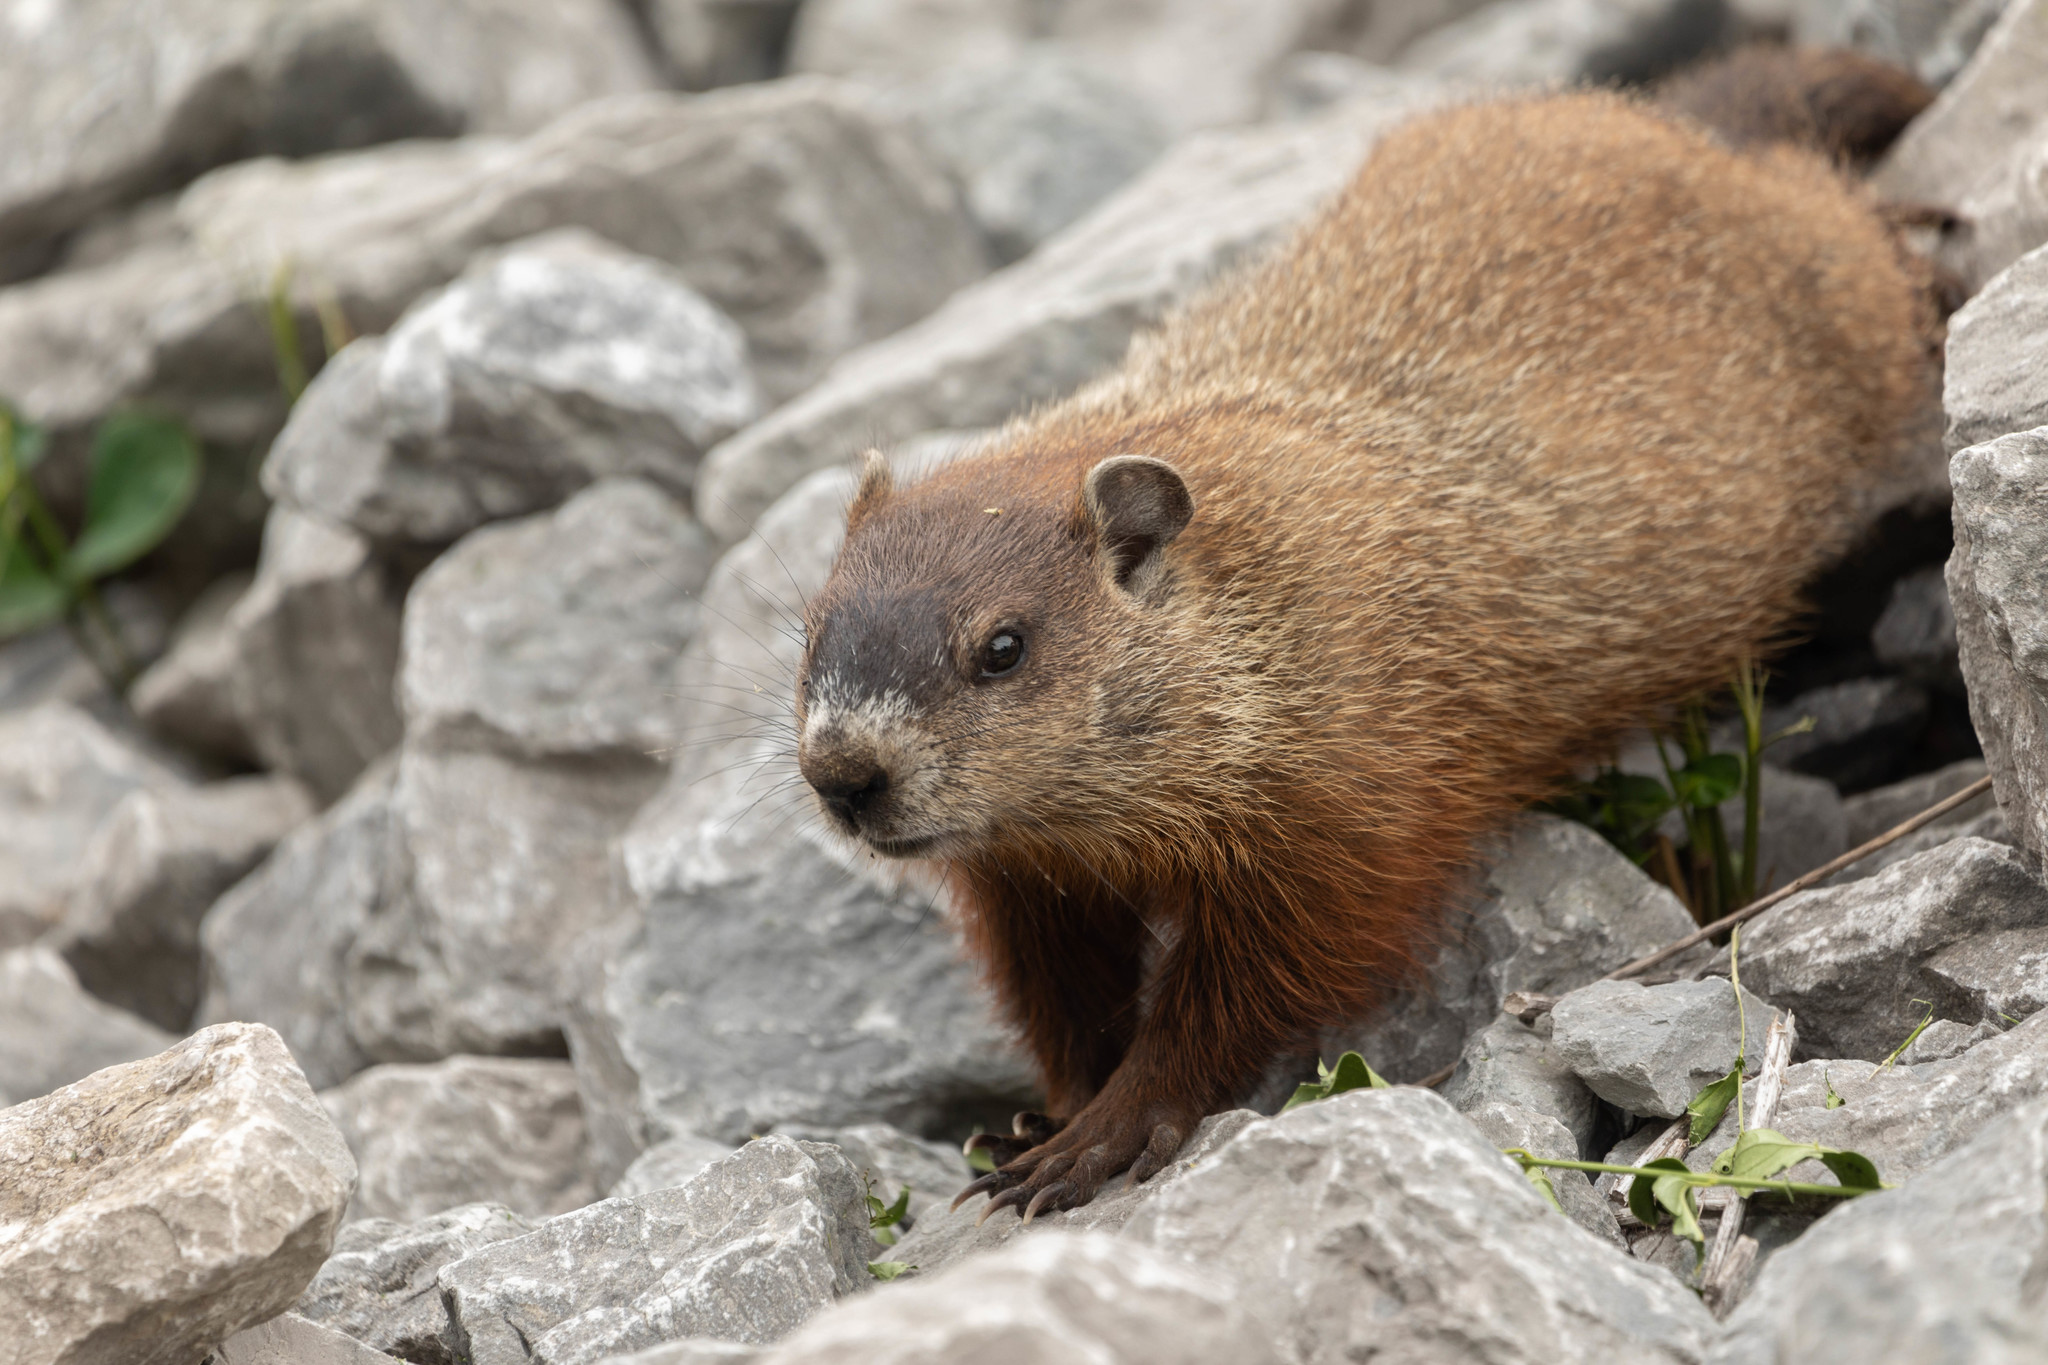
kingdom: Animalia
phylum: Chordata
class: Mammalia
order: Rodentia
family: Sciuridae
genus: Marmota
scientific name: Marmota monax
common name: Groundhog
